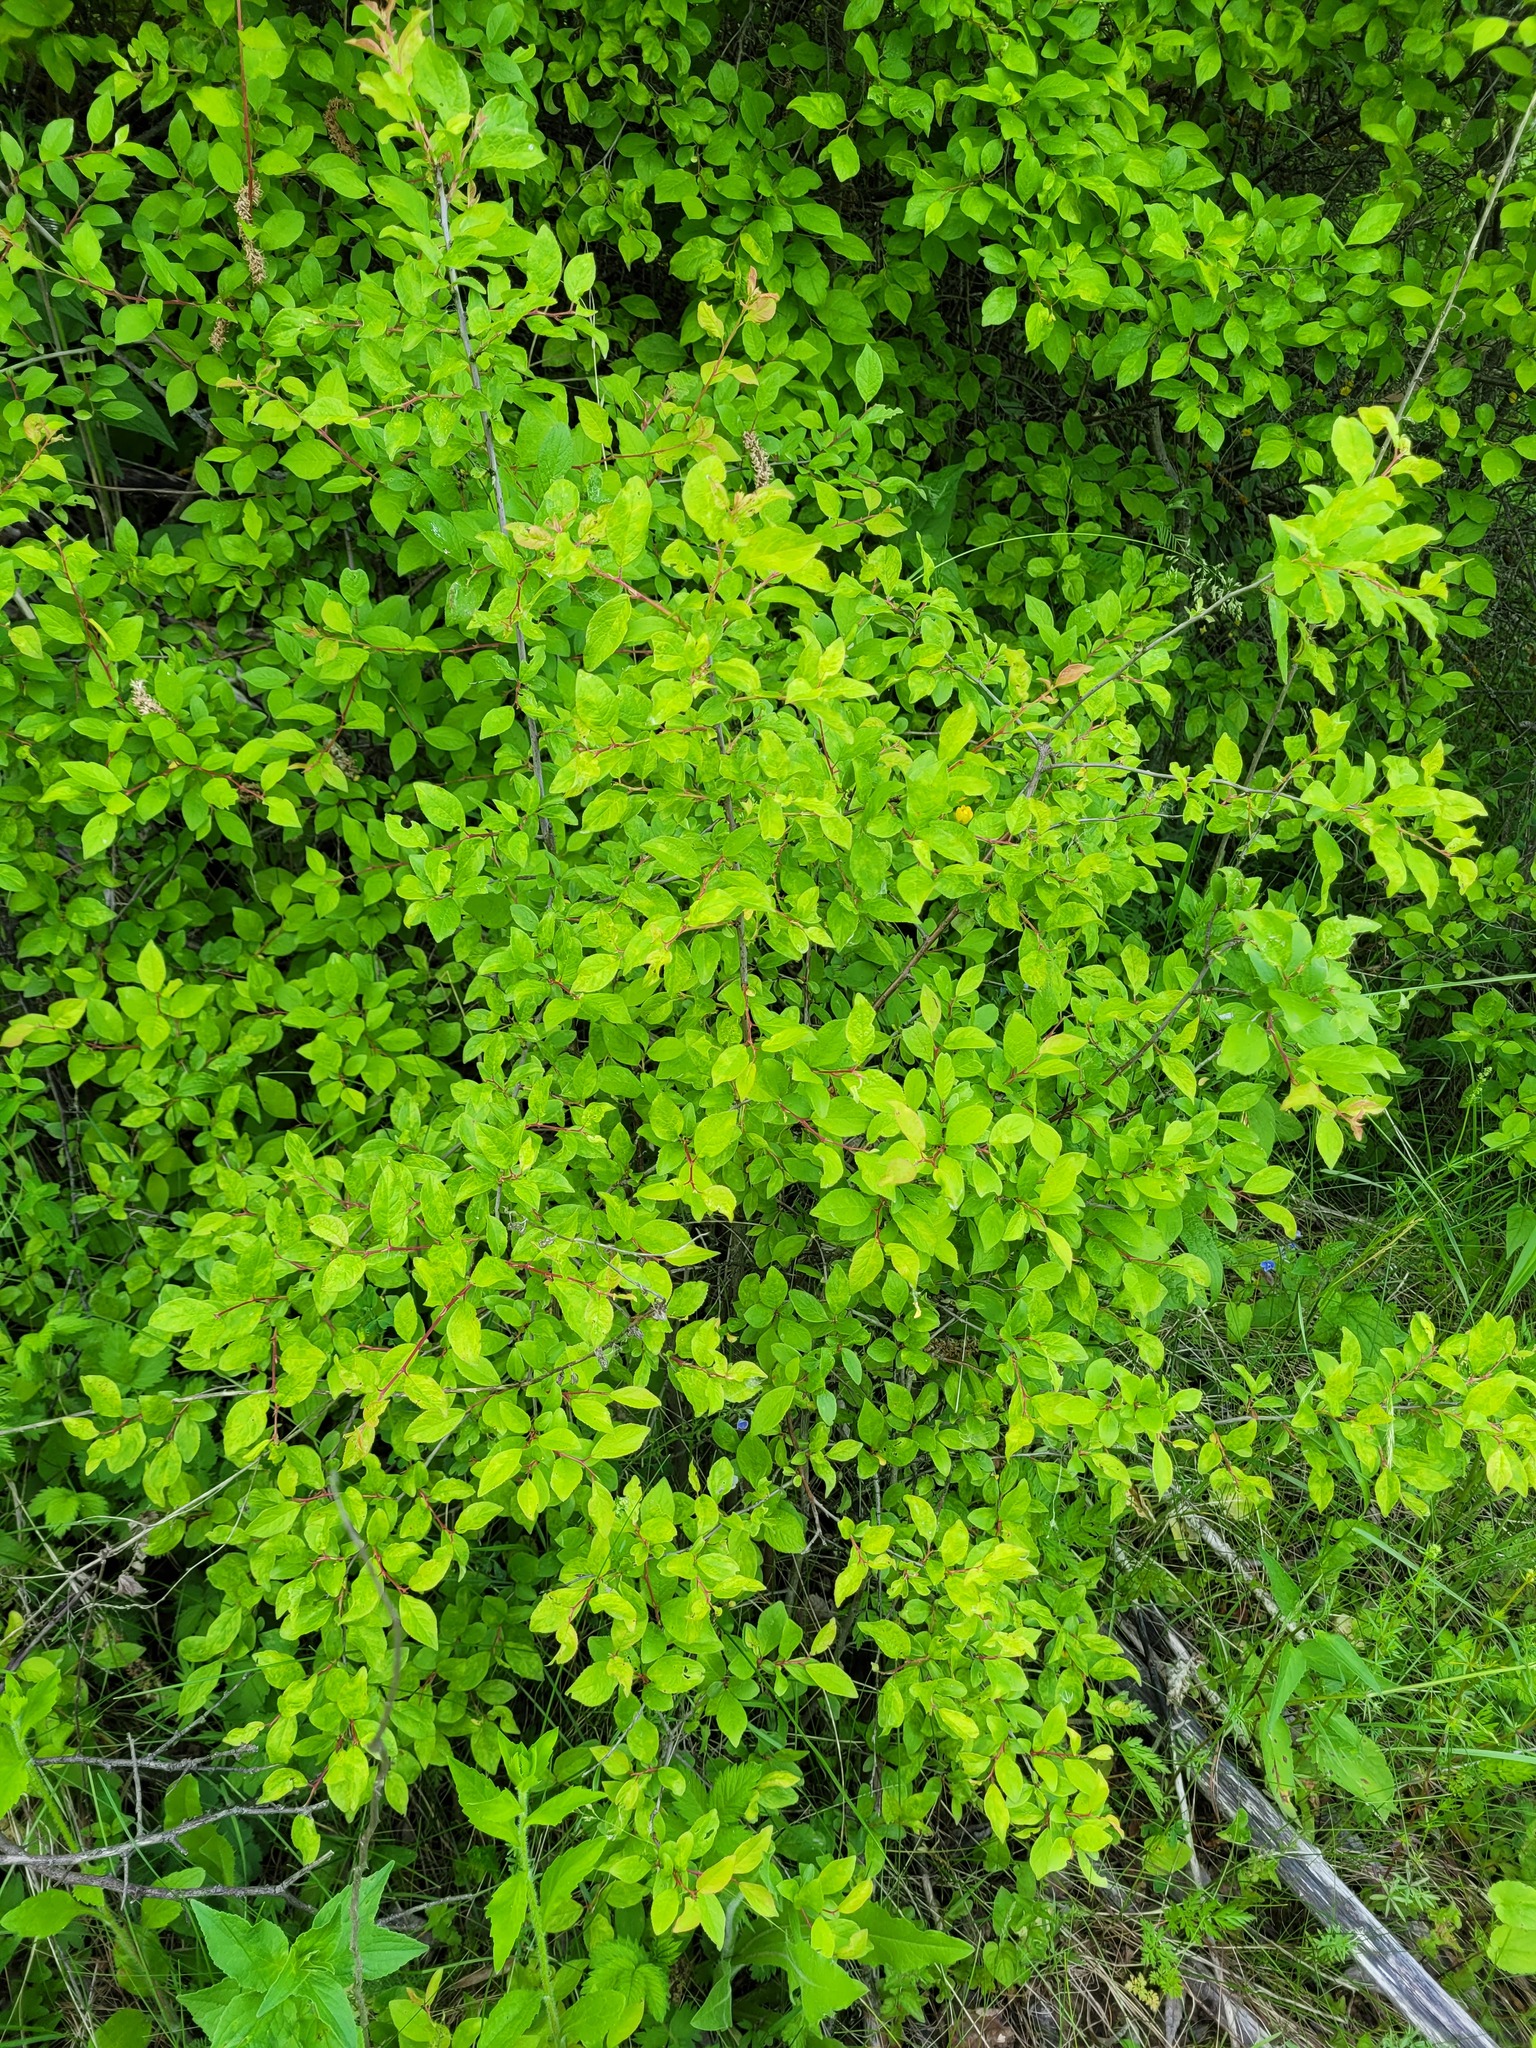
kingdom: Plantae
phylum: Tracheophyta
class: Magnoliopsida
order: Rosales
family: Rosaceae
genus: Prunus
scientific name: Prunus spinosa
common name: Blackthorn
